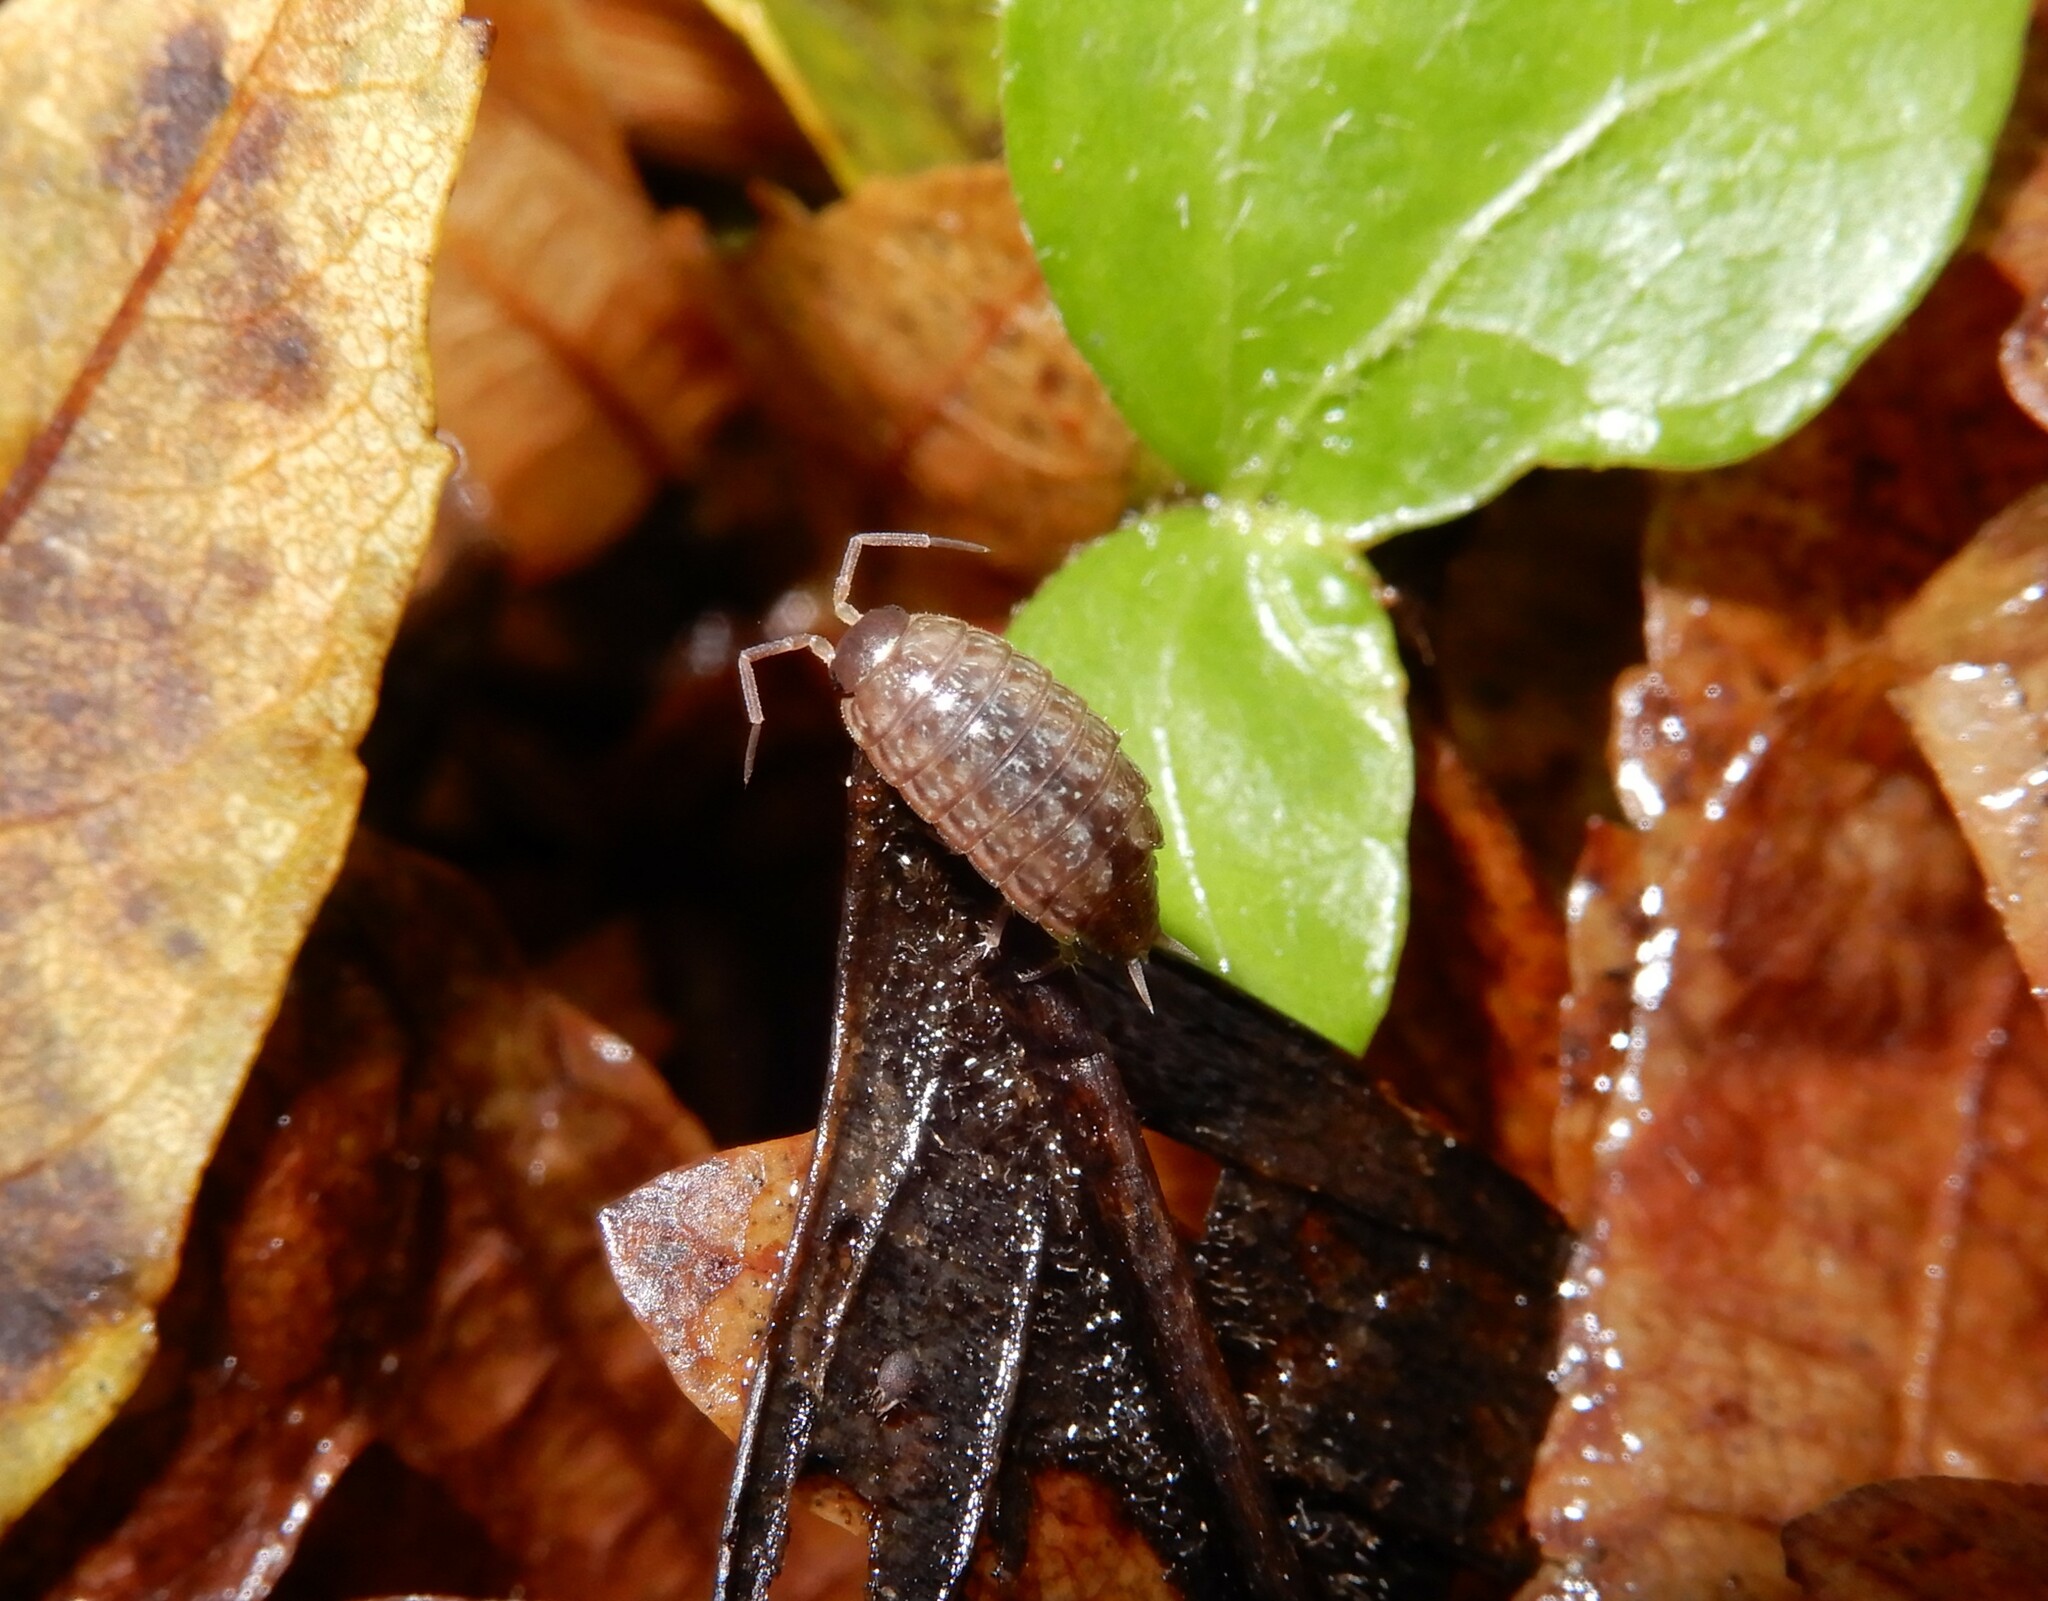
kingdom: Animalia
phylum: Arthropoda
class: Malacostraca
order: Isopoda
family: Philosciidae
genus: Philoscia
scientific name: Philoscia muscorum
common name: Common striped woodlouse
